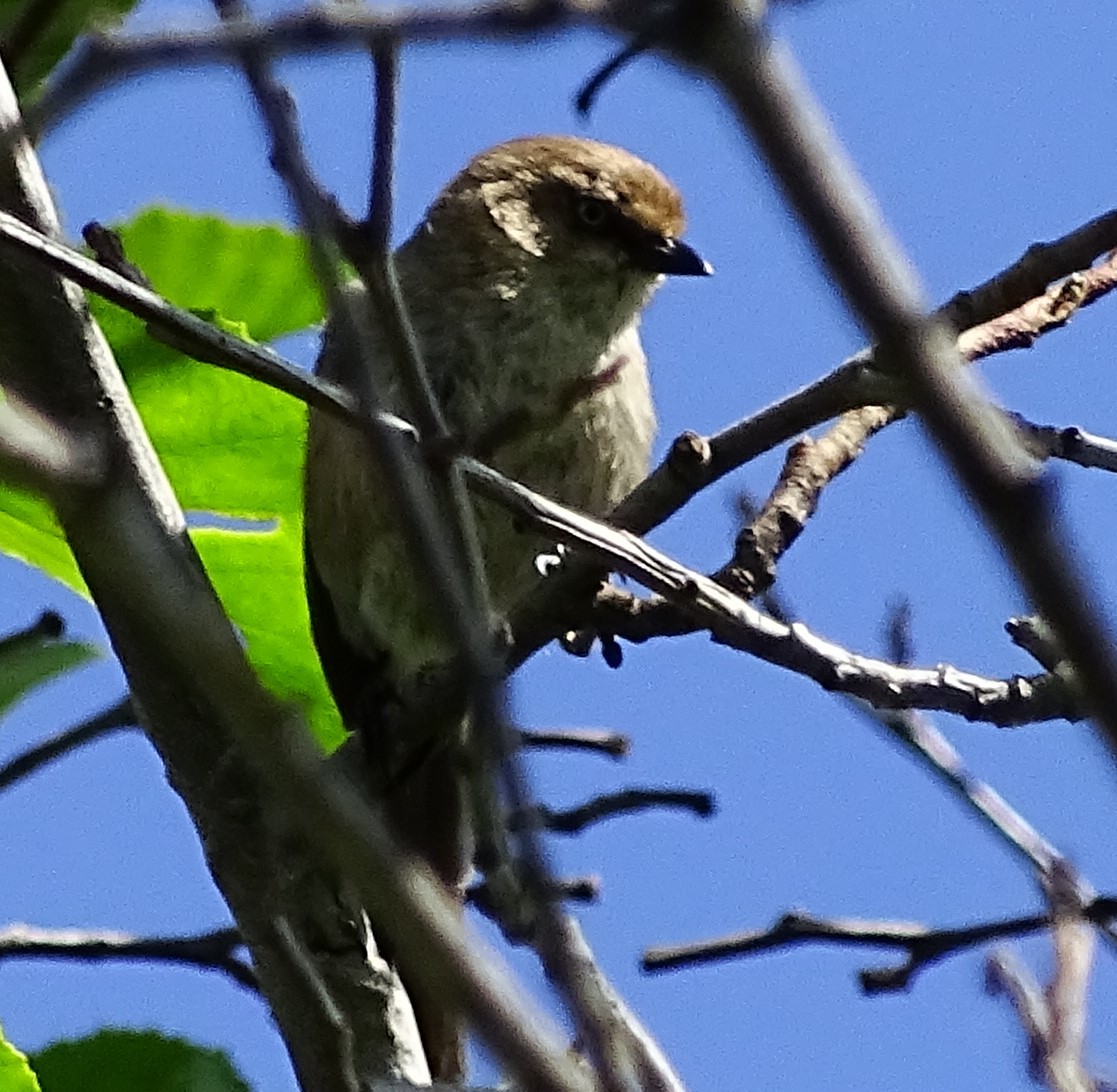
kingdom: Animalia
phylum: Chordata
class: Aves
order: Passeriformes
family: Aegithalidae
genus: Psaltriparus
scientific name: Psaltriparus minimus
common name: American bushtit
